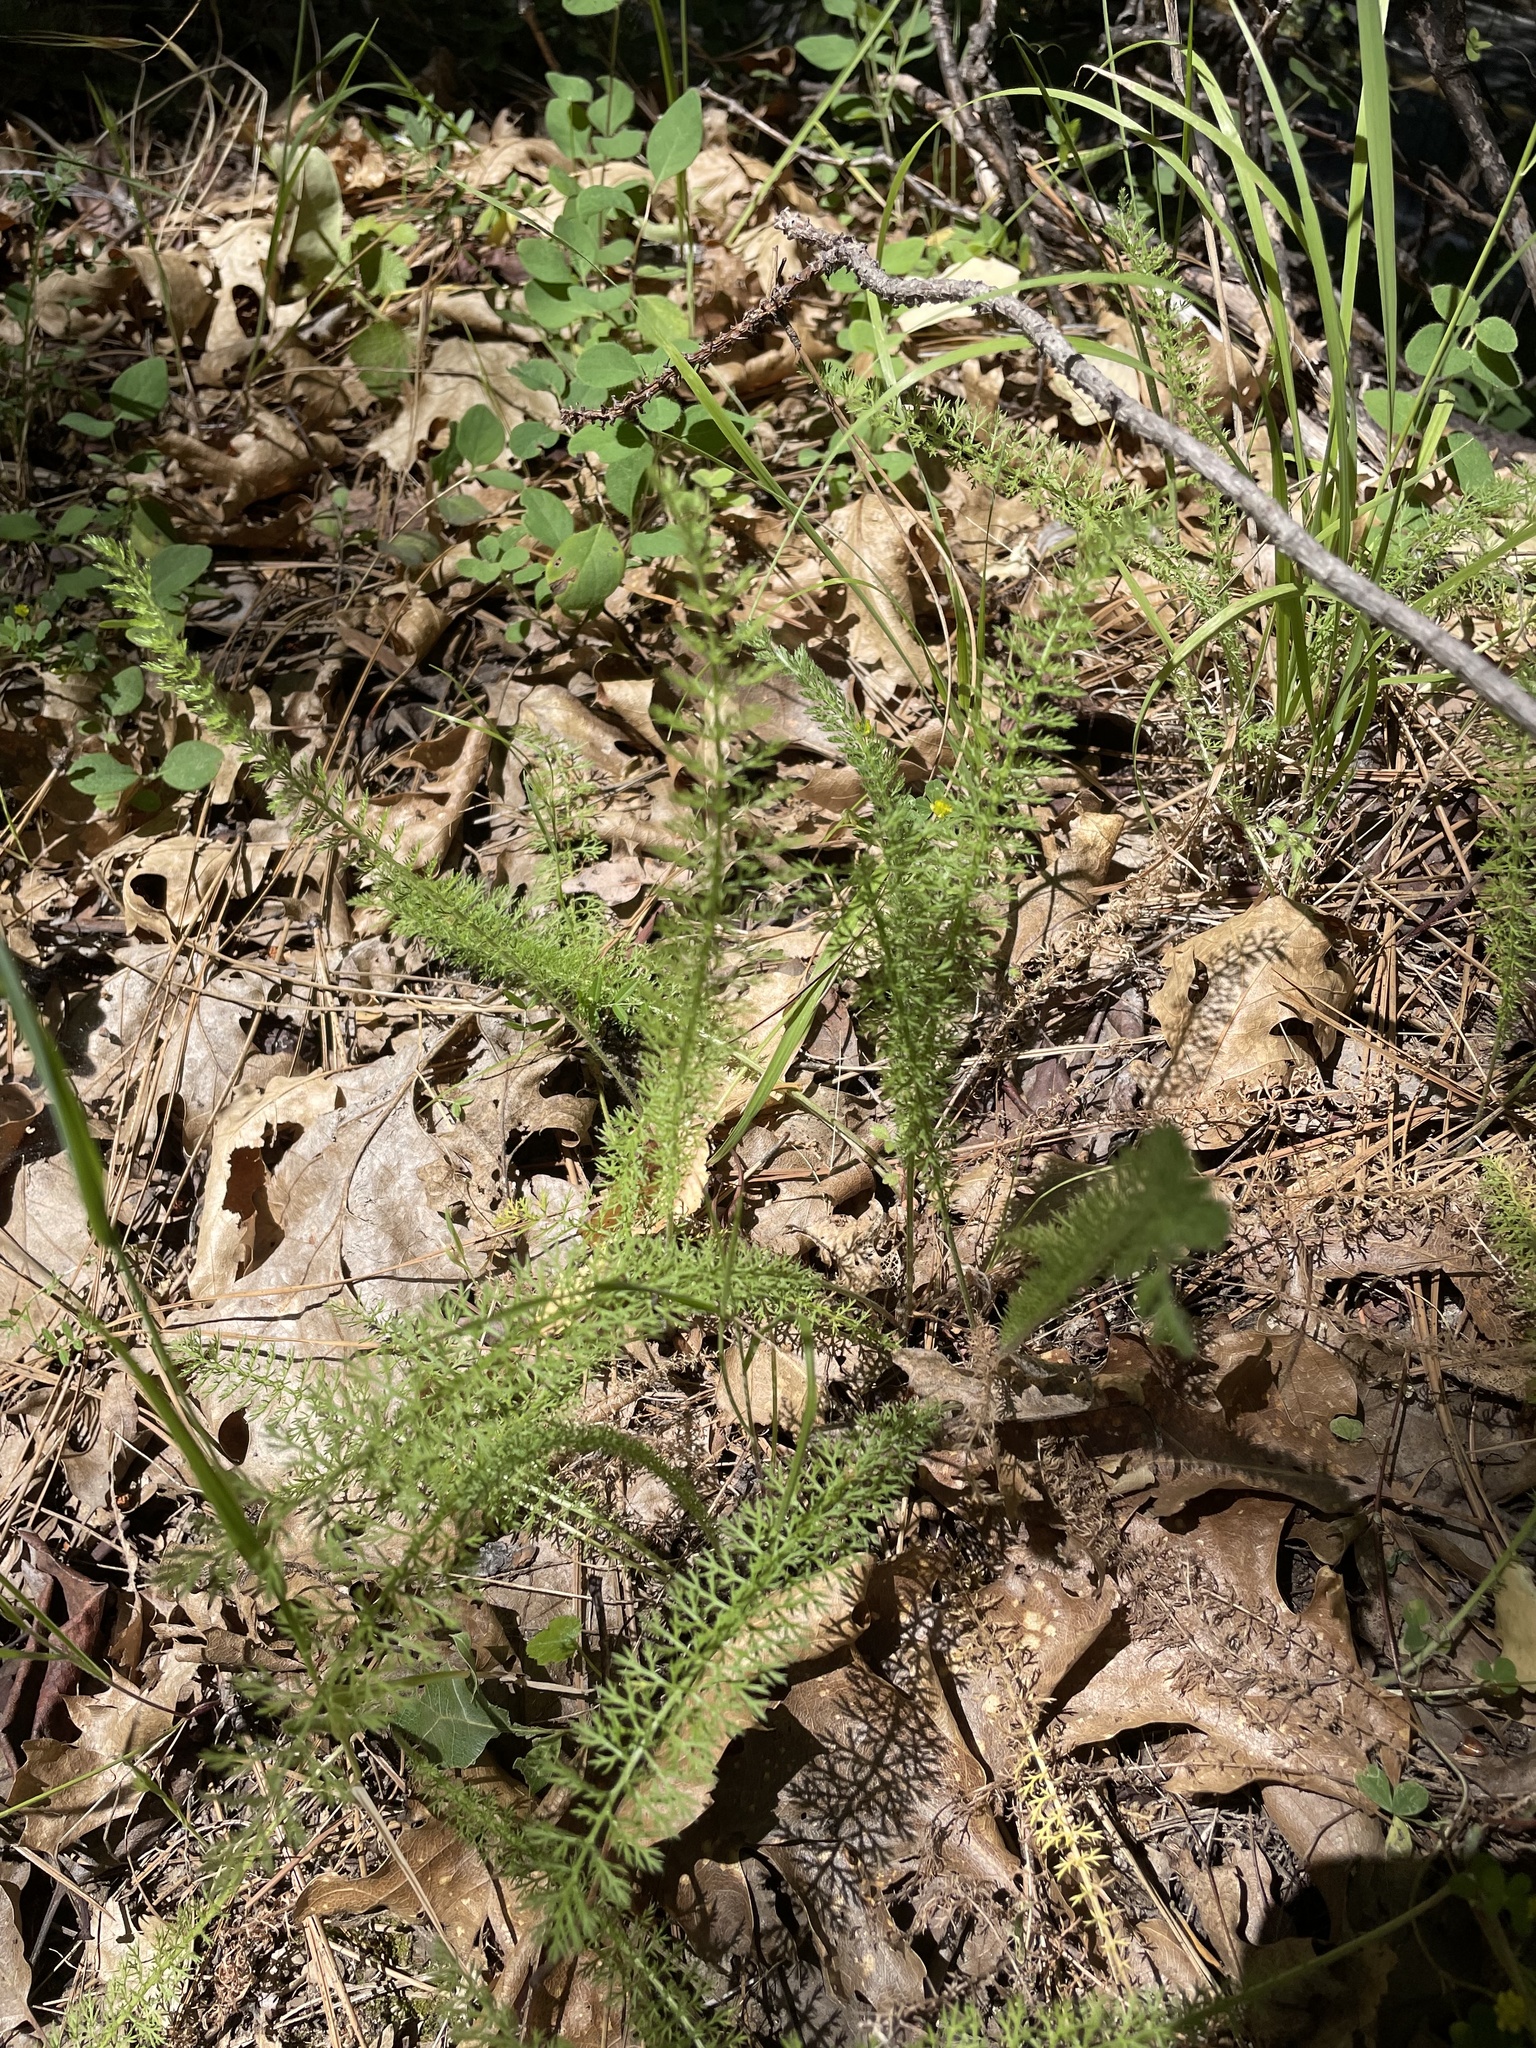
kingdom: Plantae
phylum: Tracheophyta
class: Magnoliopsida
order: Asterales
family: Asteraceae
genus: Achillea
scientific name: Achillea millefolium
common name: Yarrow
